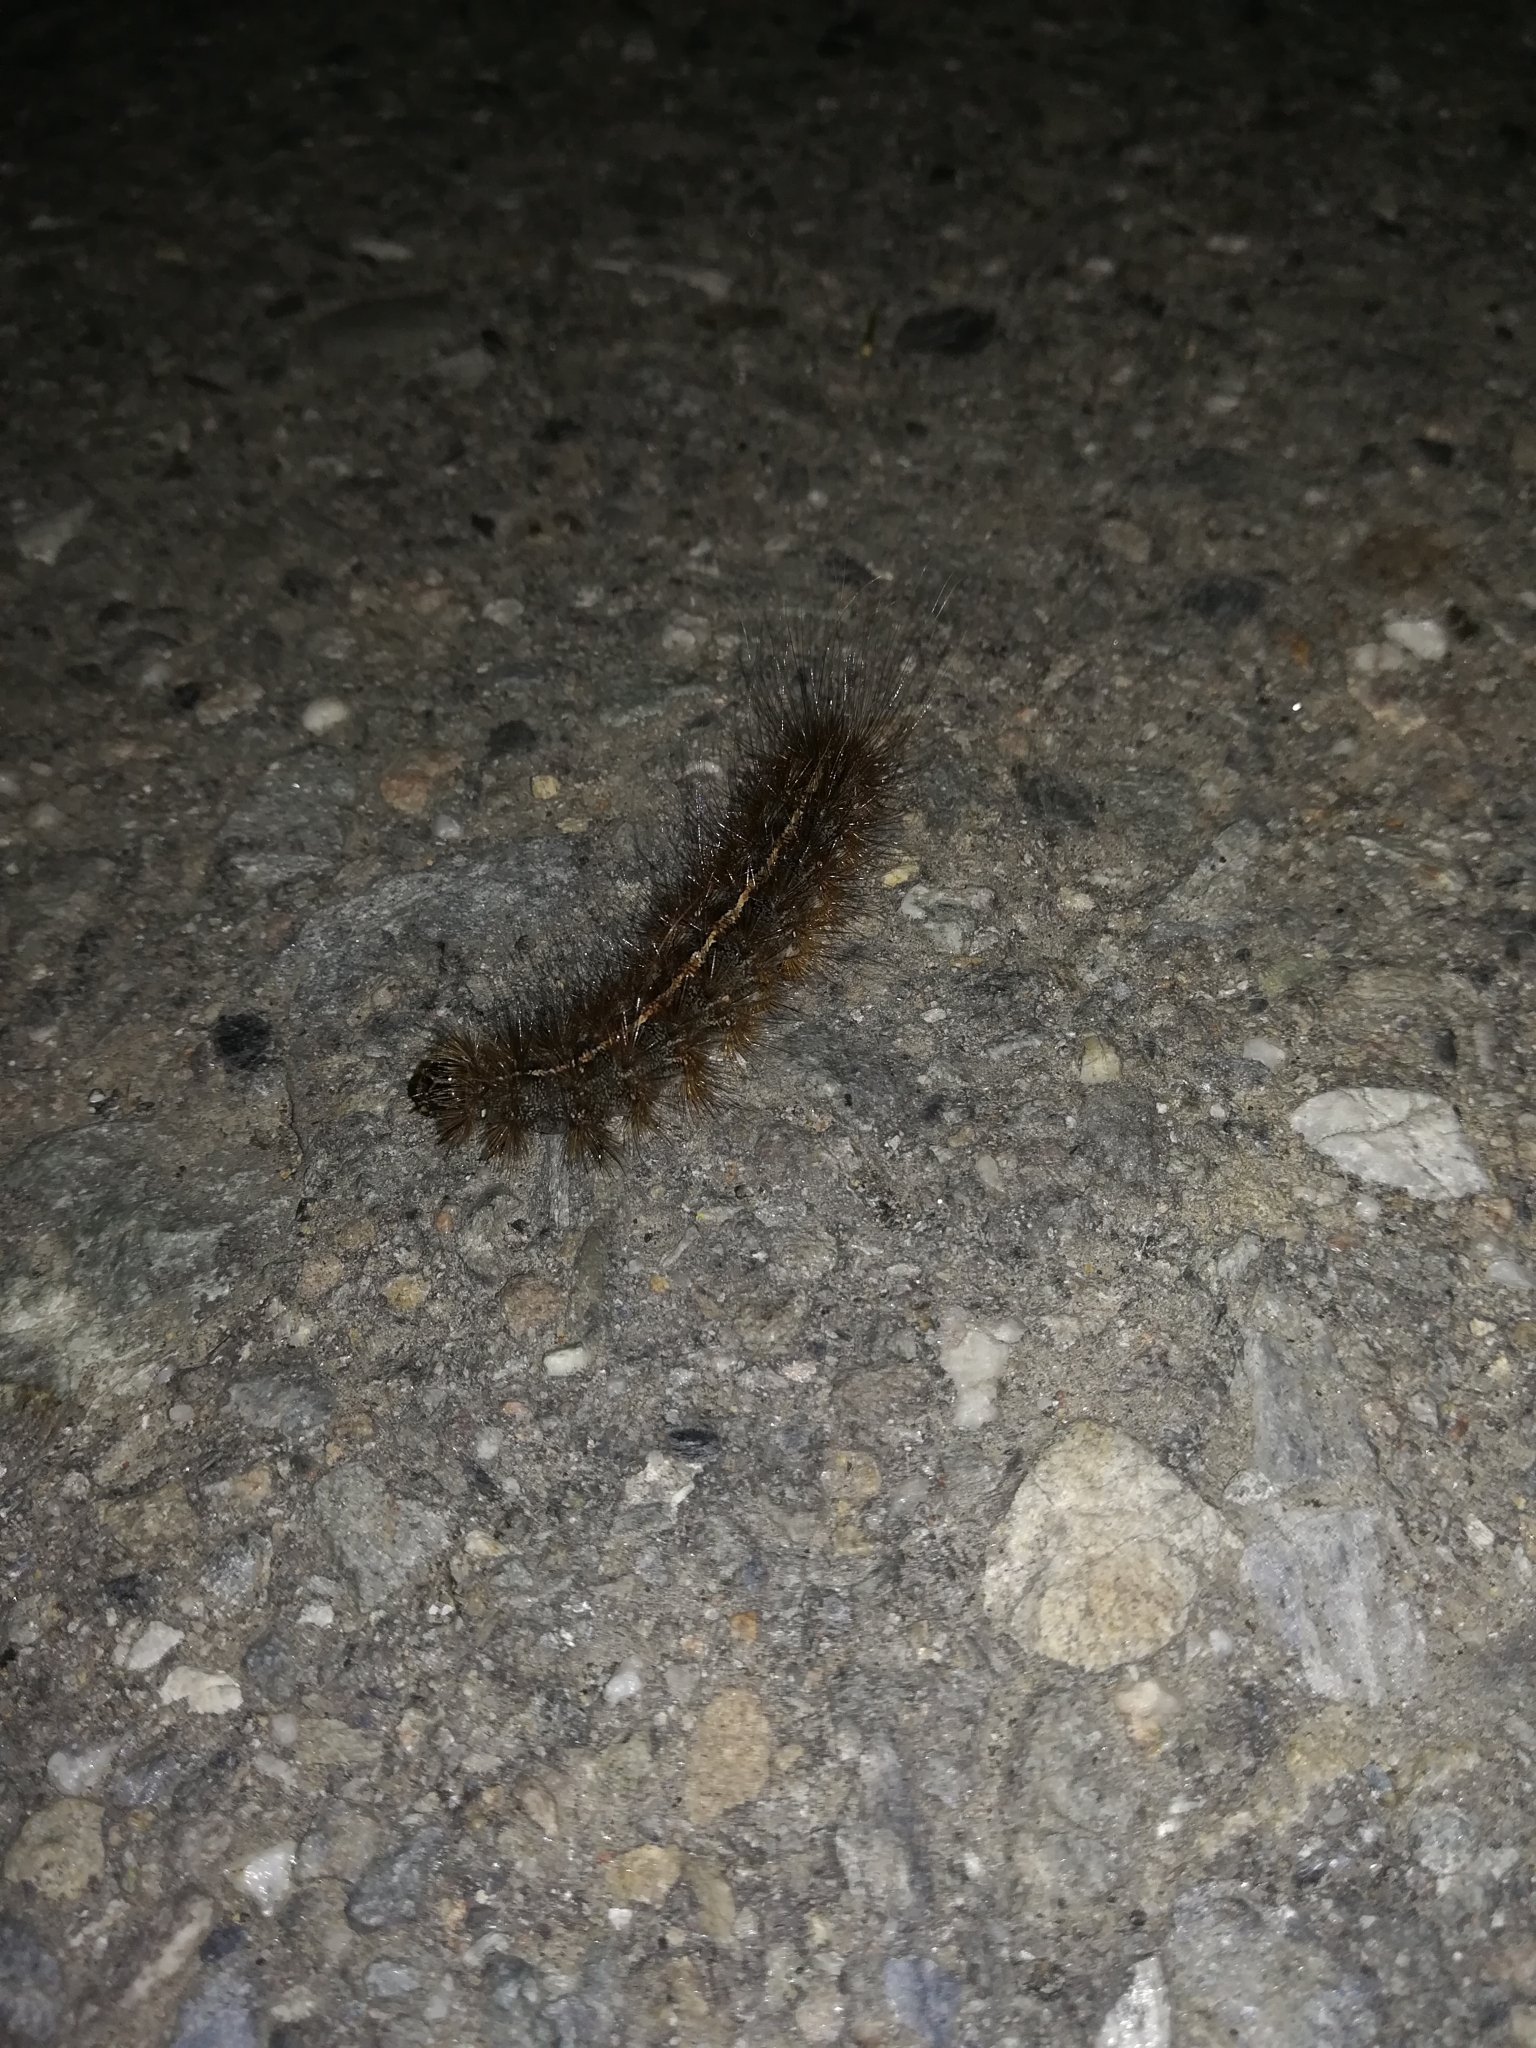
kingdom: Animalia
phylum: Arthropoda
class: Insecta
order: Lepidoptera
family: Erebidae
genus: Creatonotos
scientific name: Creatonotos transiens
